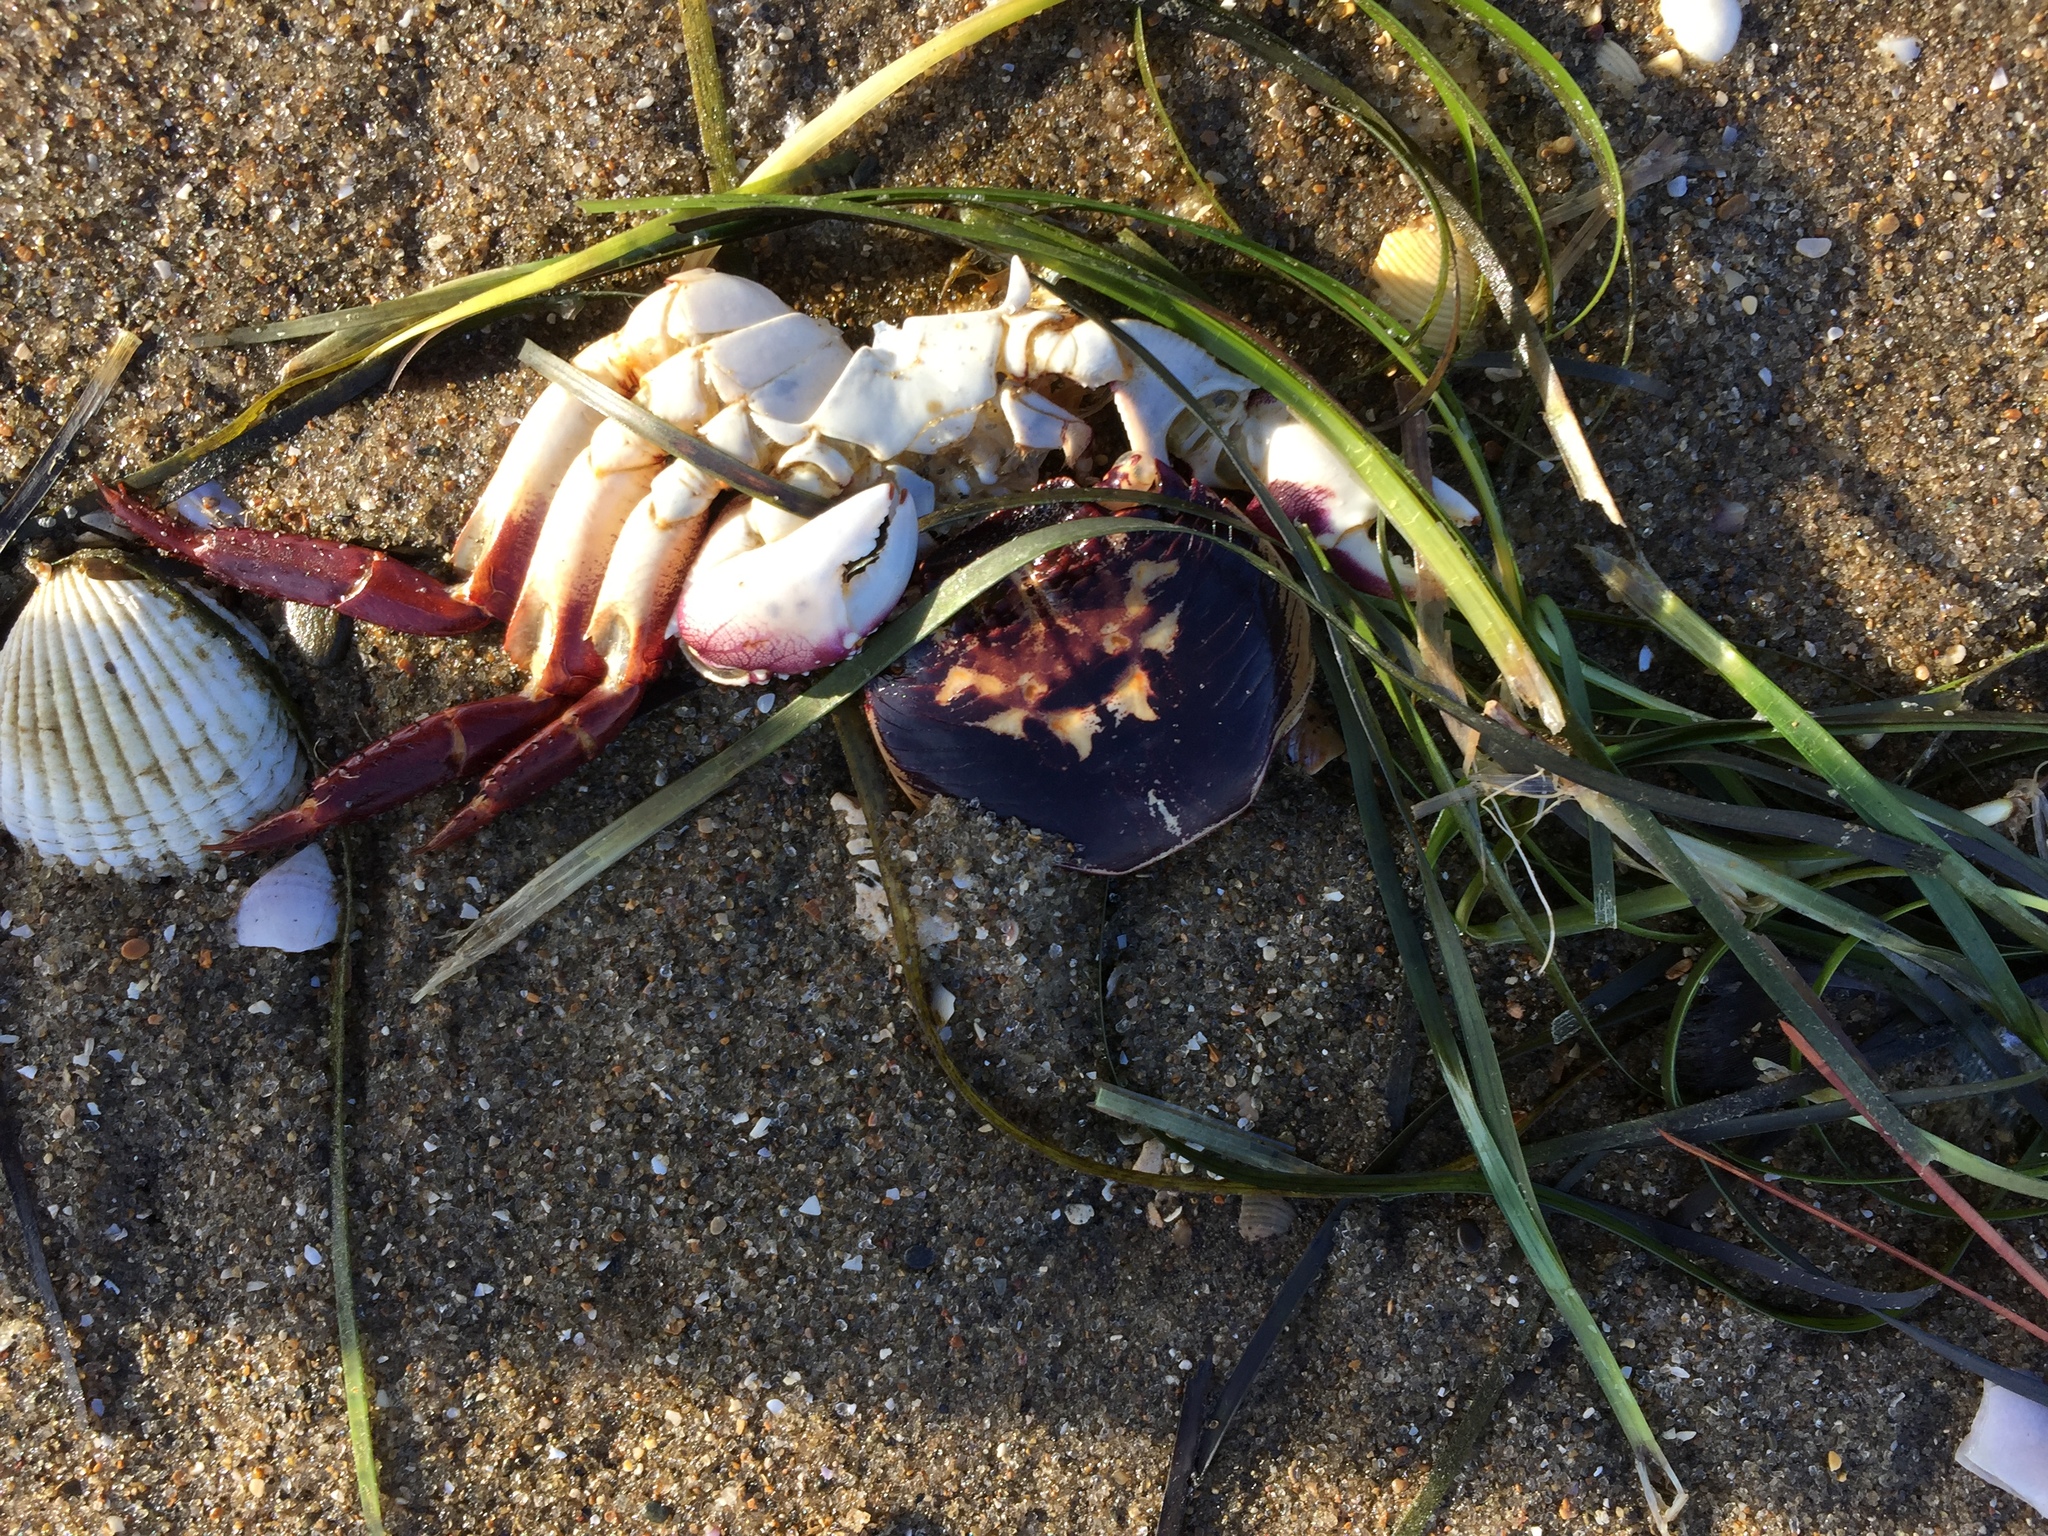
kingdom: Animalia
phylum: Arthropoda
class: Malacostraca
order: Decapoda
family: Grapsidae
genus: Leptograpsus
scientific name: Leptograpsus variegatus
